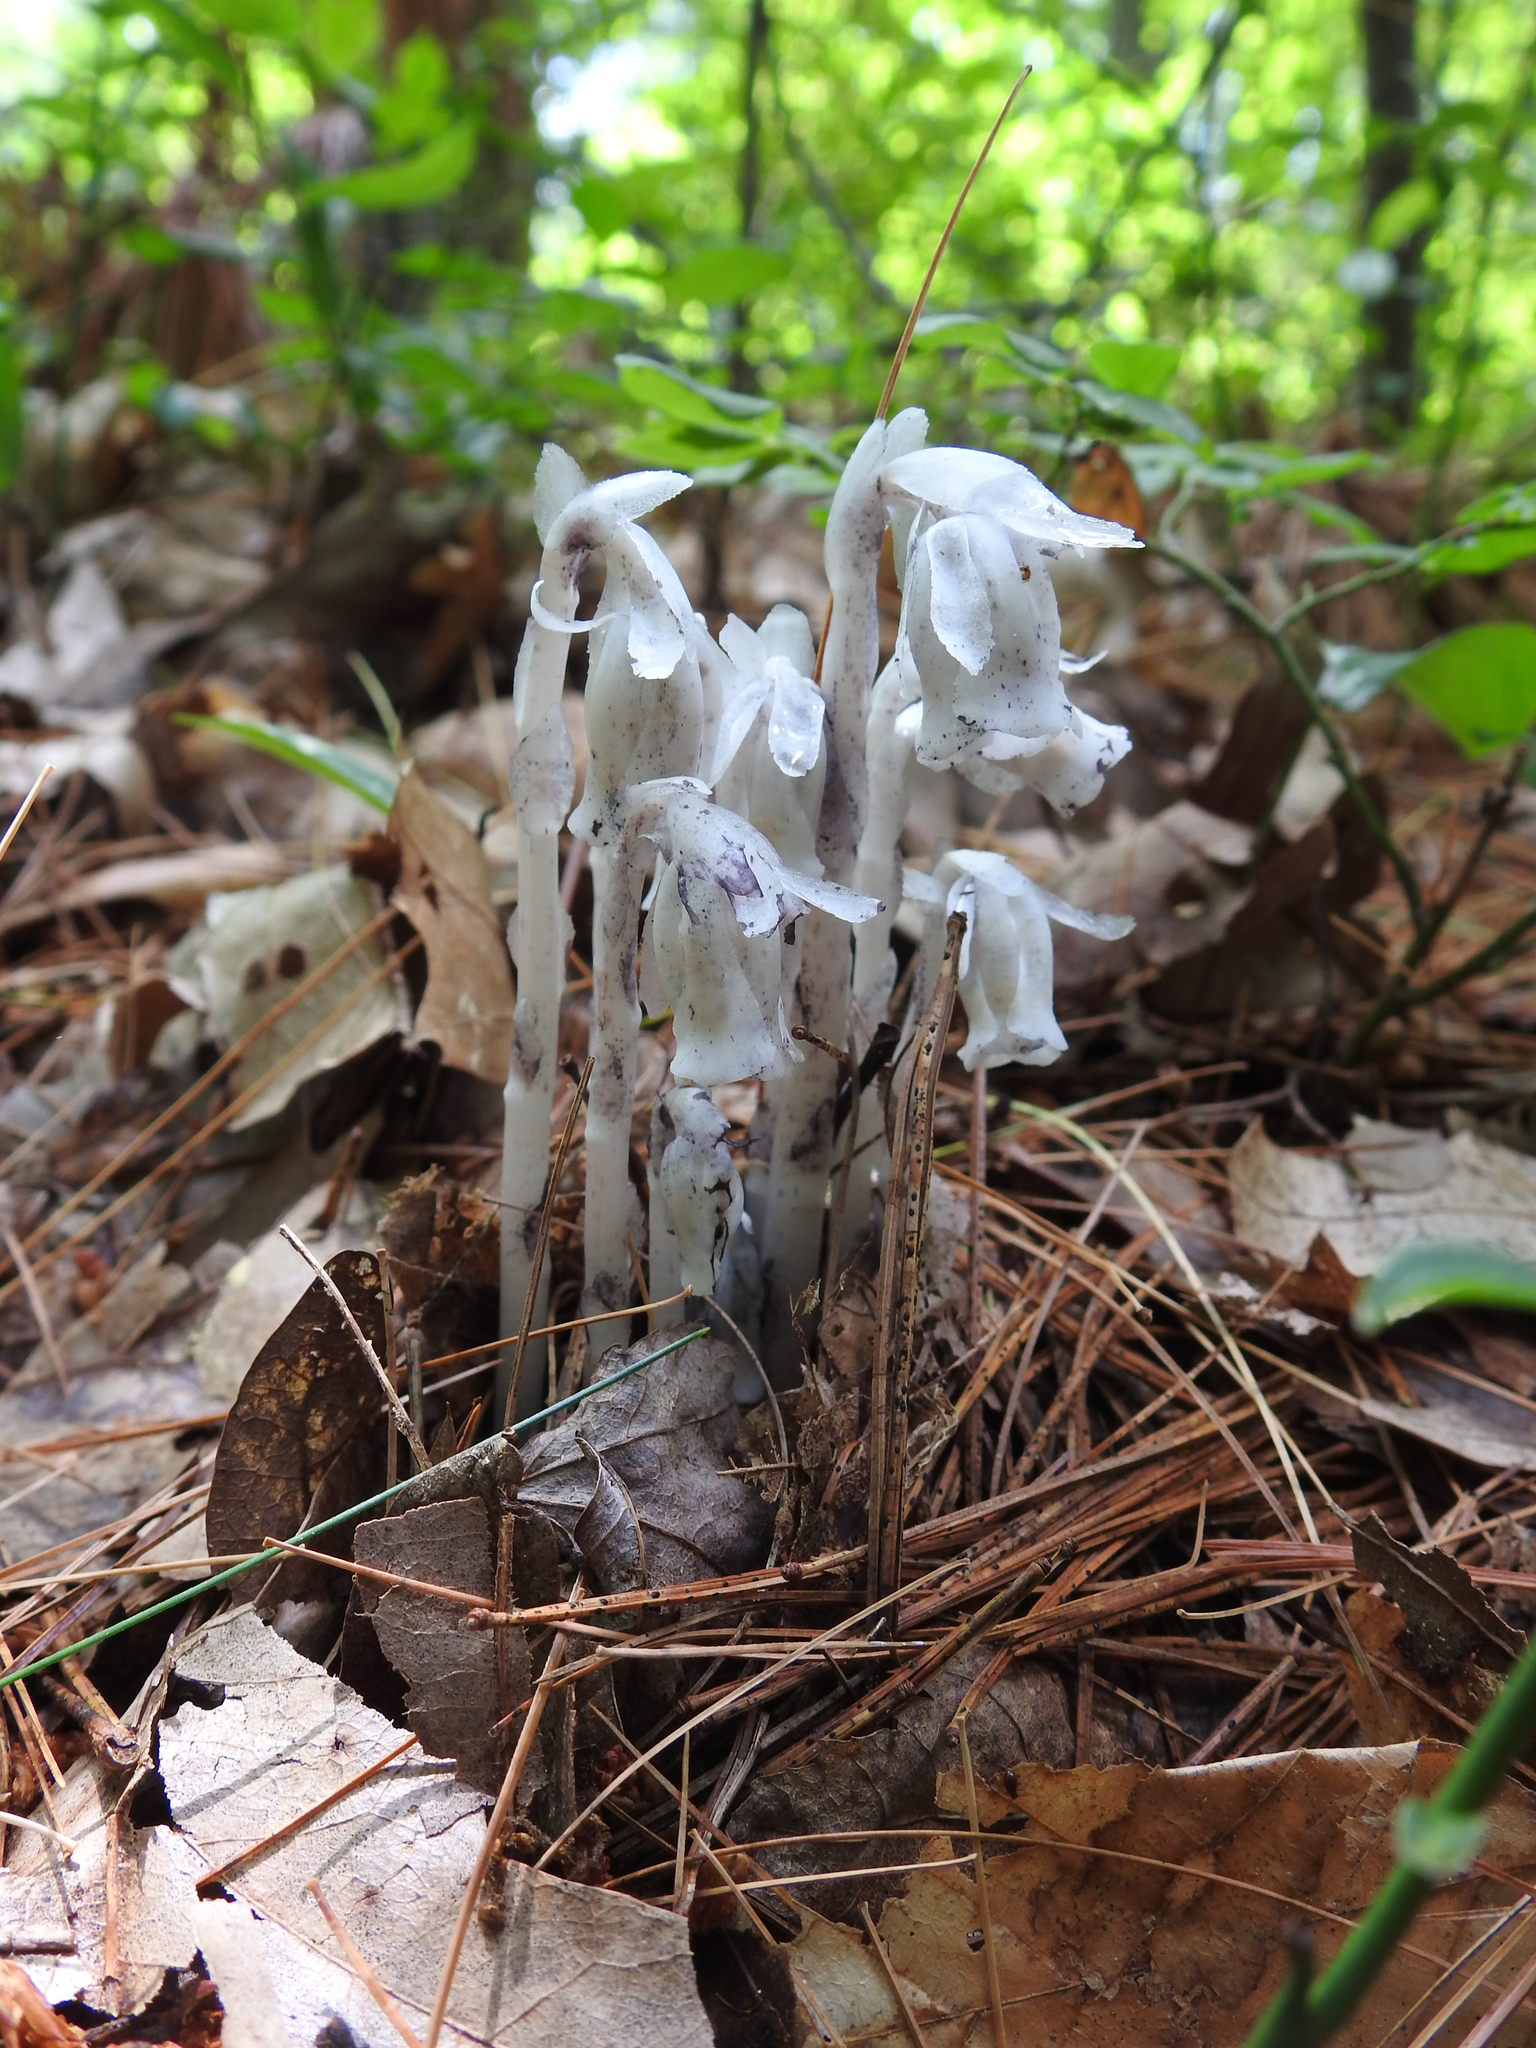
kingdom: Plantae
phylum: Tracheophyta
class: Magnoliopsida
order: Ericales
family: Ericaceae
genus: Monotropa
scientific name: Monotropa uniflora
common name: Convulsion root
